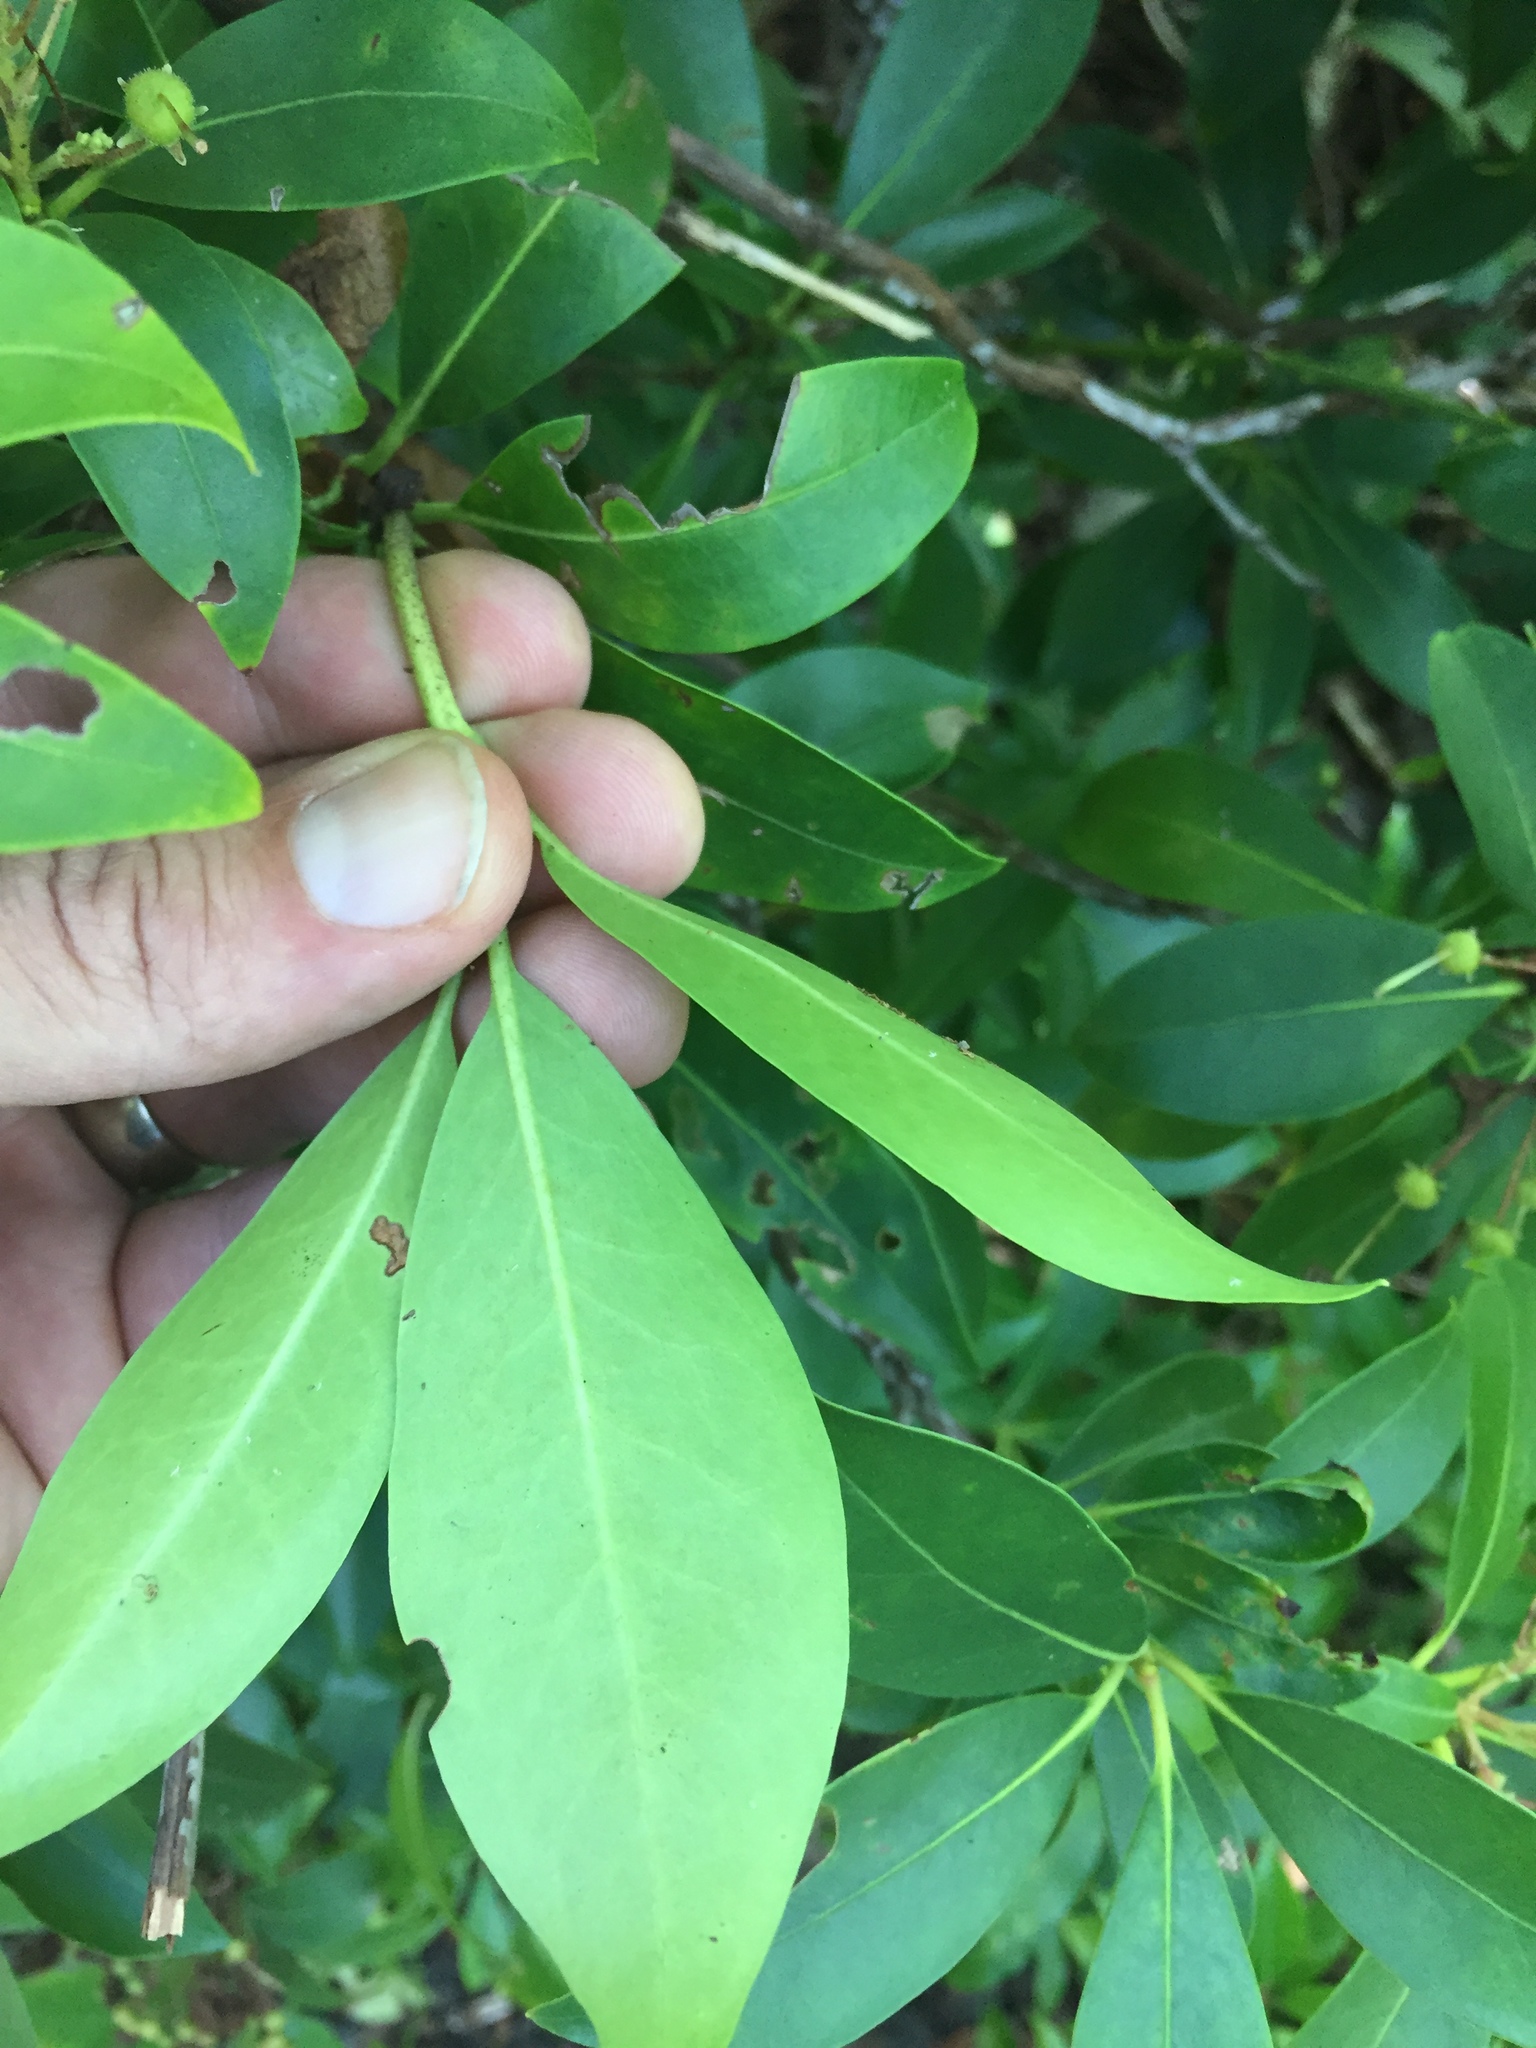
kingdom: Plantae
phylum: Tracheophyta
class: Magnoliopsida
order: Ericales
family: Ericaceae
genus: Kalmia
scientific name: Kalmia latifolia
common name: Mountain-laurel
